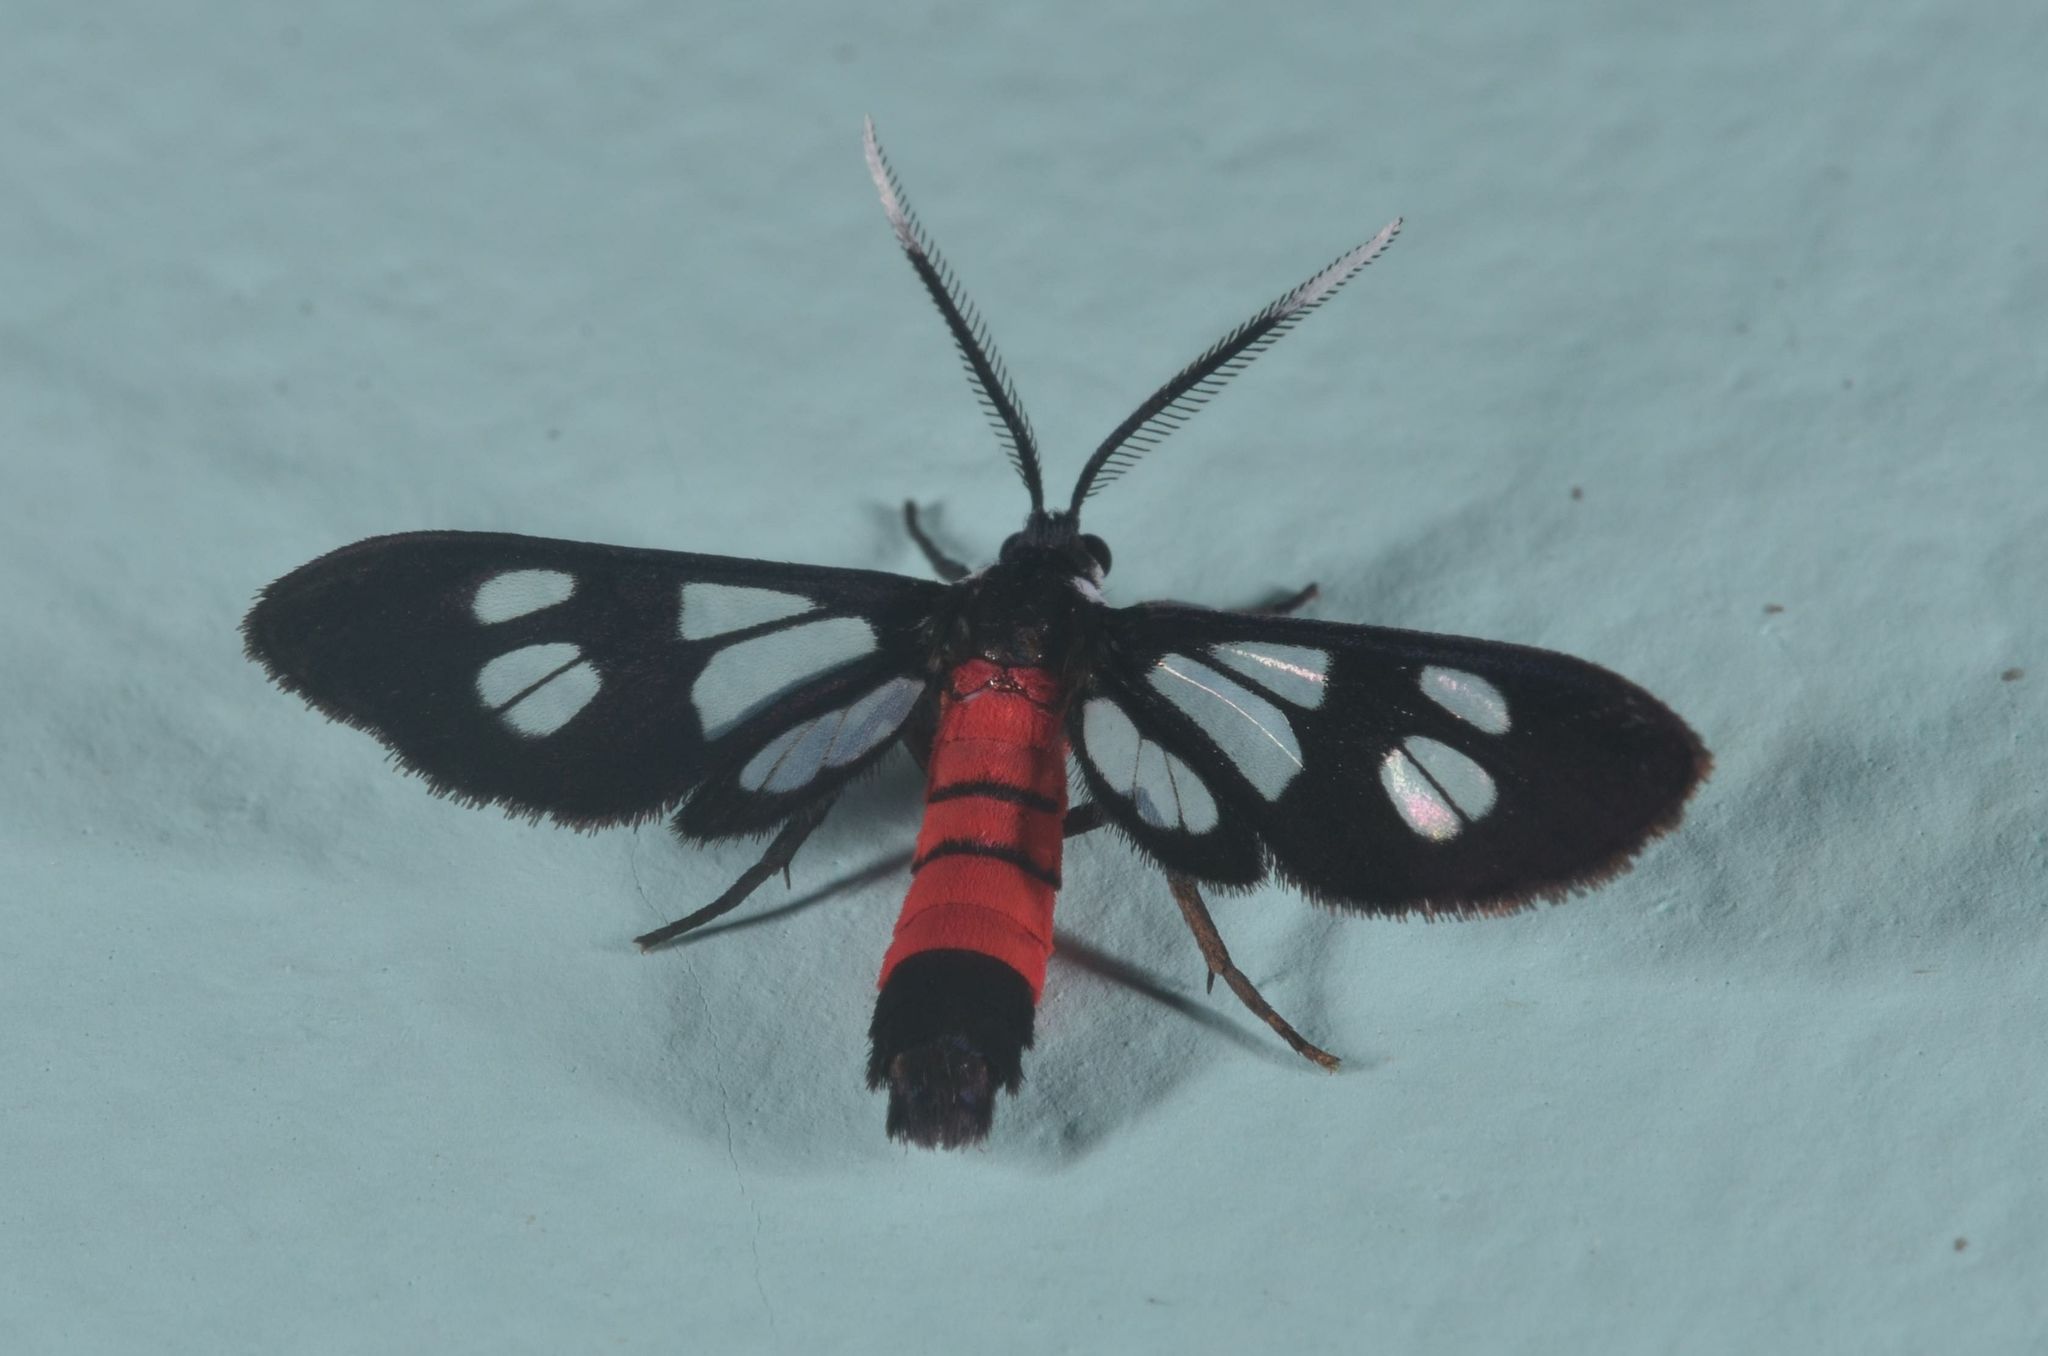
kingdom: Animalia
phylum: Arthropoda
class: Insecta
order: Lepidoptera
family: Erebidae
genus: Amata
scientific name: Amata leopoldi
